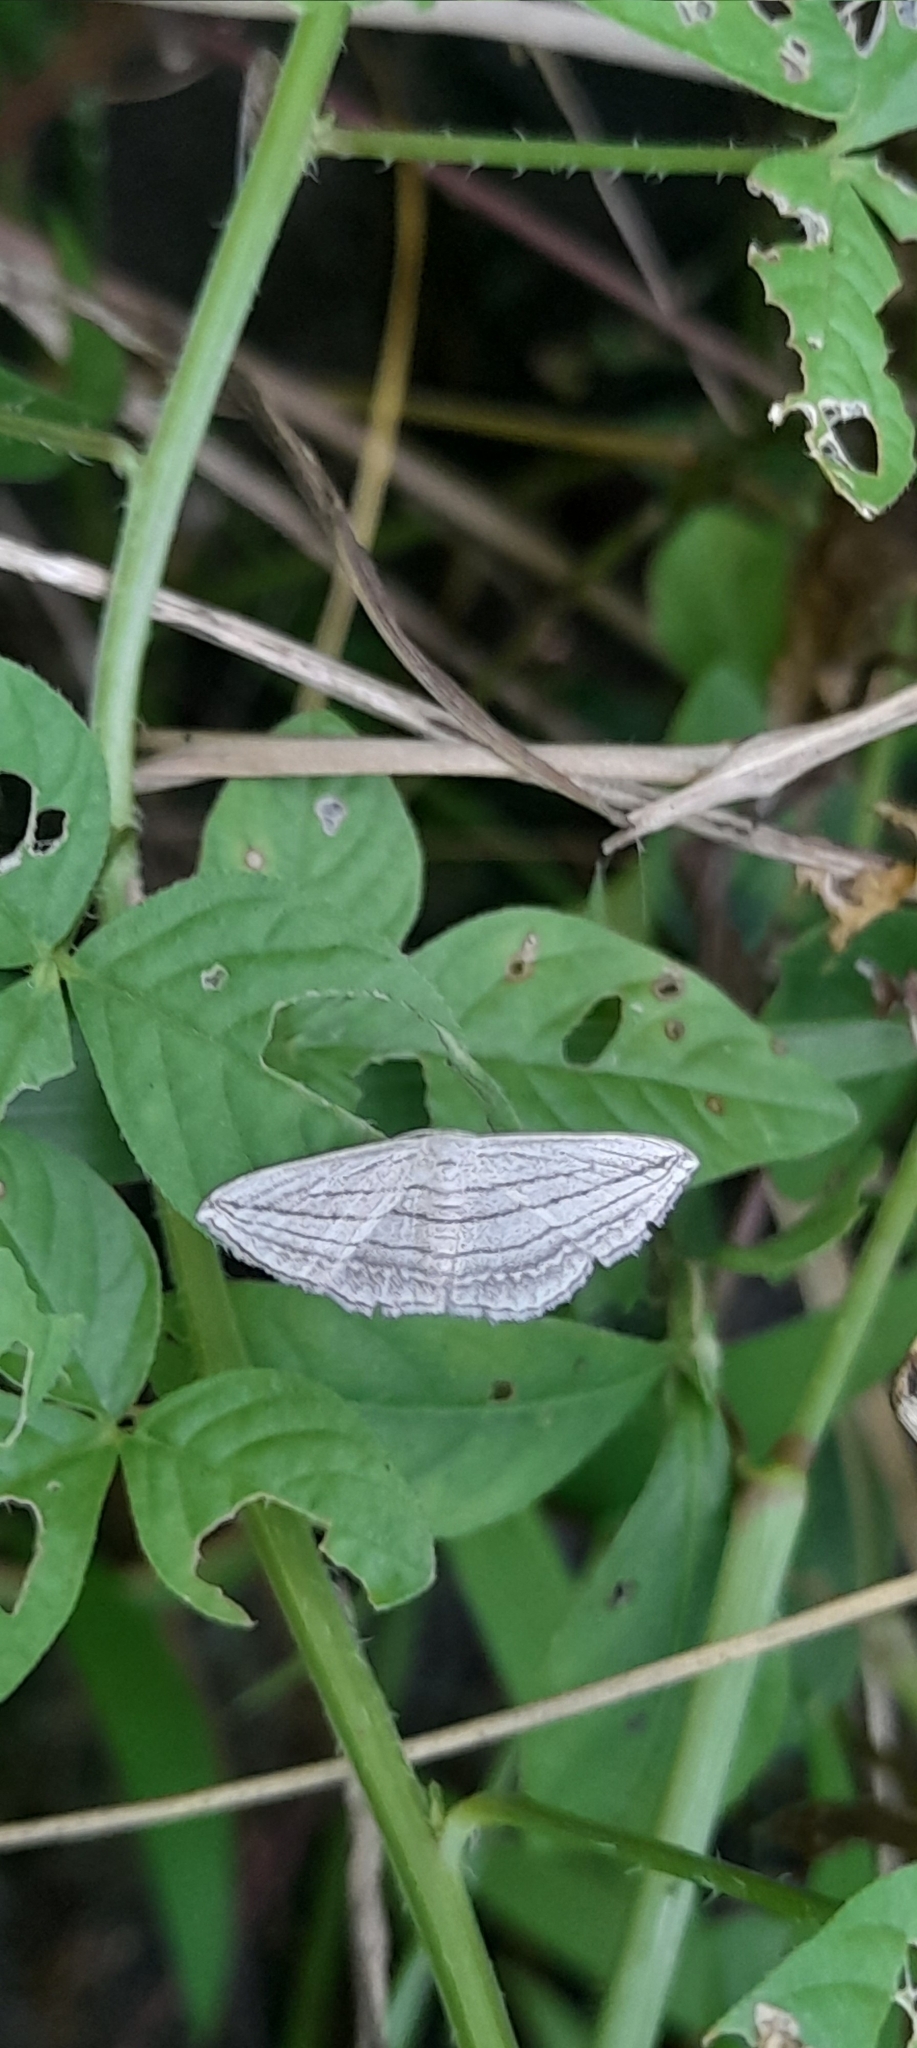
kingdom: Animalia
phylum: Arthropoda
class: Insecta
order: Lepidoptera
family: Geometridae
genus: Scopula
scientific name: Scopula opicata
